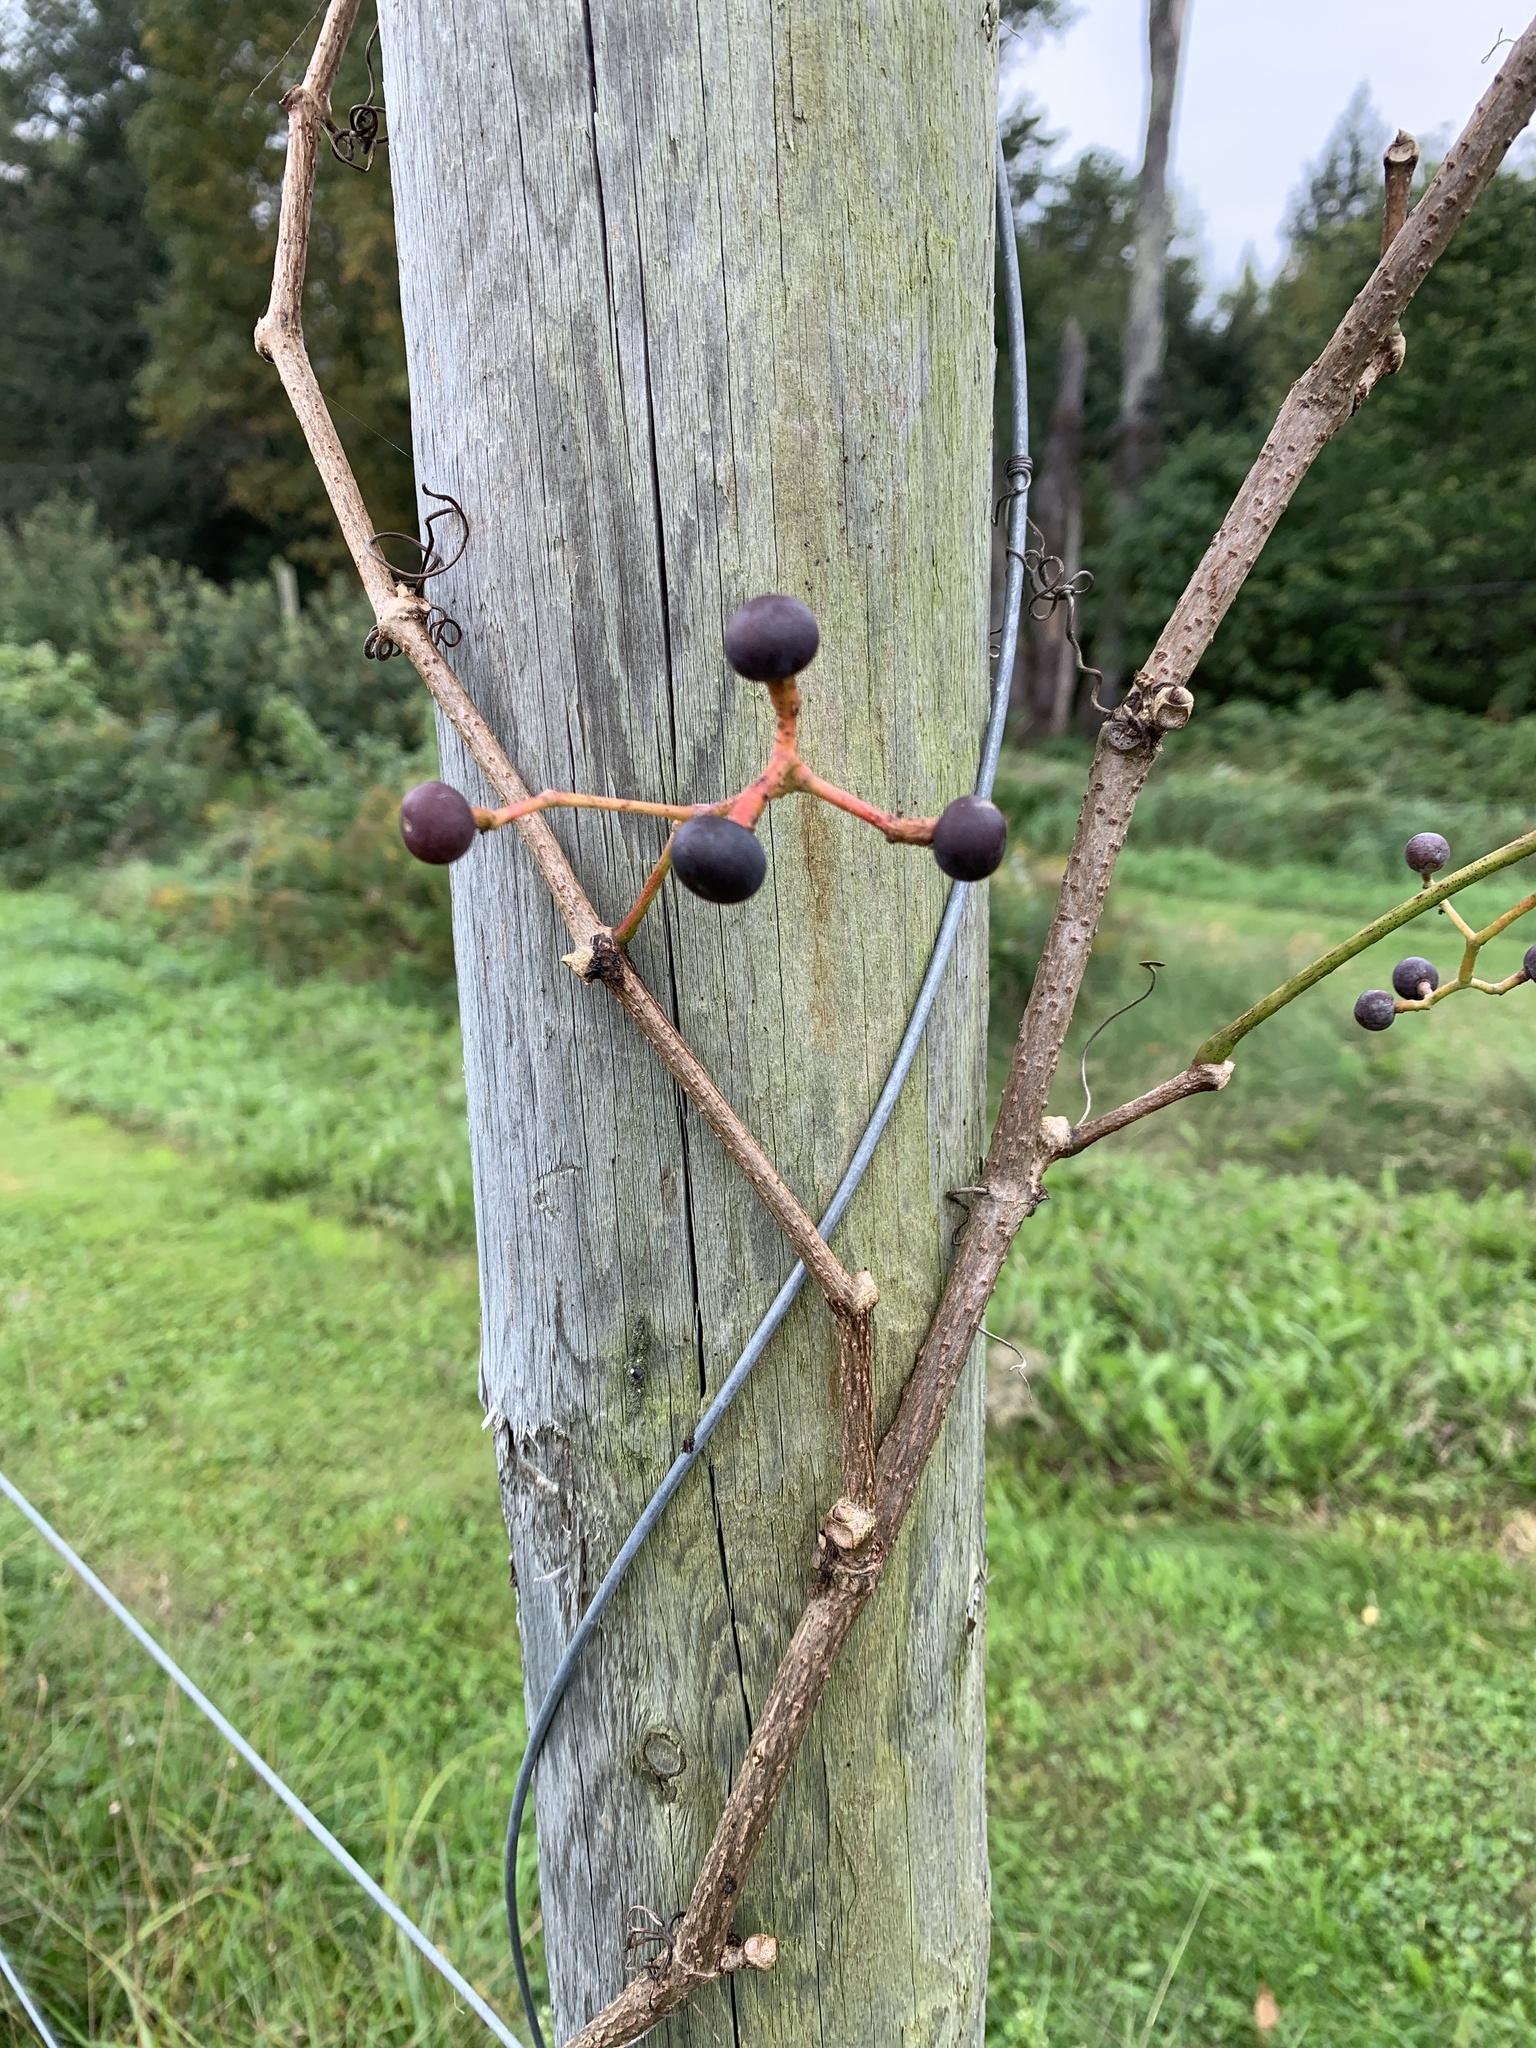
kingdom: Plantae
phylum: Tracheophyta
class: Magnoliopsida
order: Vitales
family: Vitaceae
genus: Parthenocissus
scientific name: Parthenocissus quinquefolia
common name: Virginia-creeper
